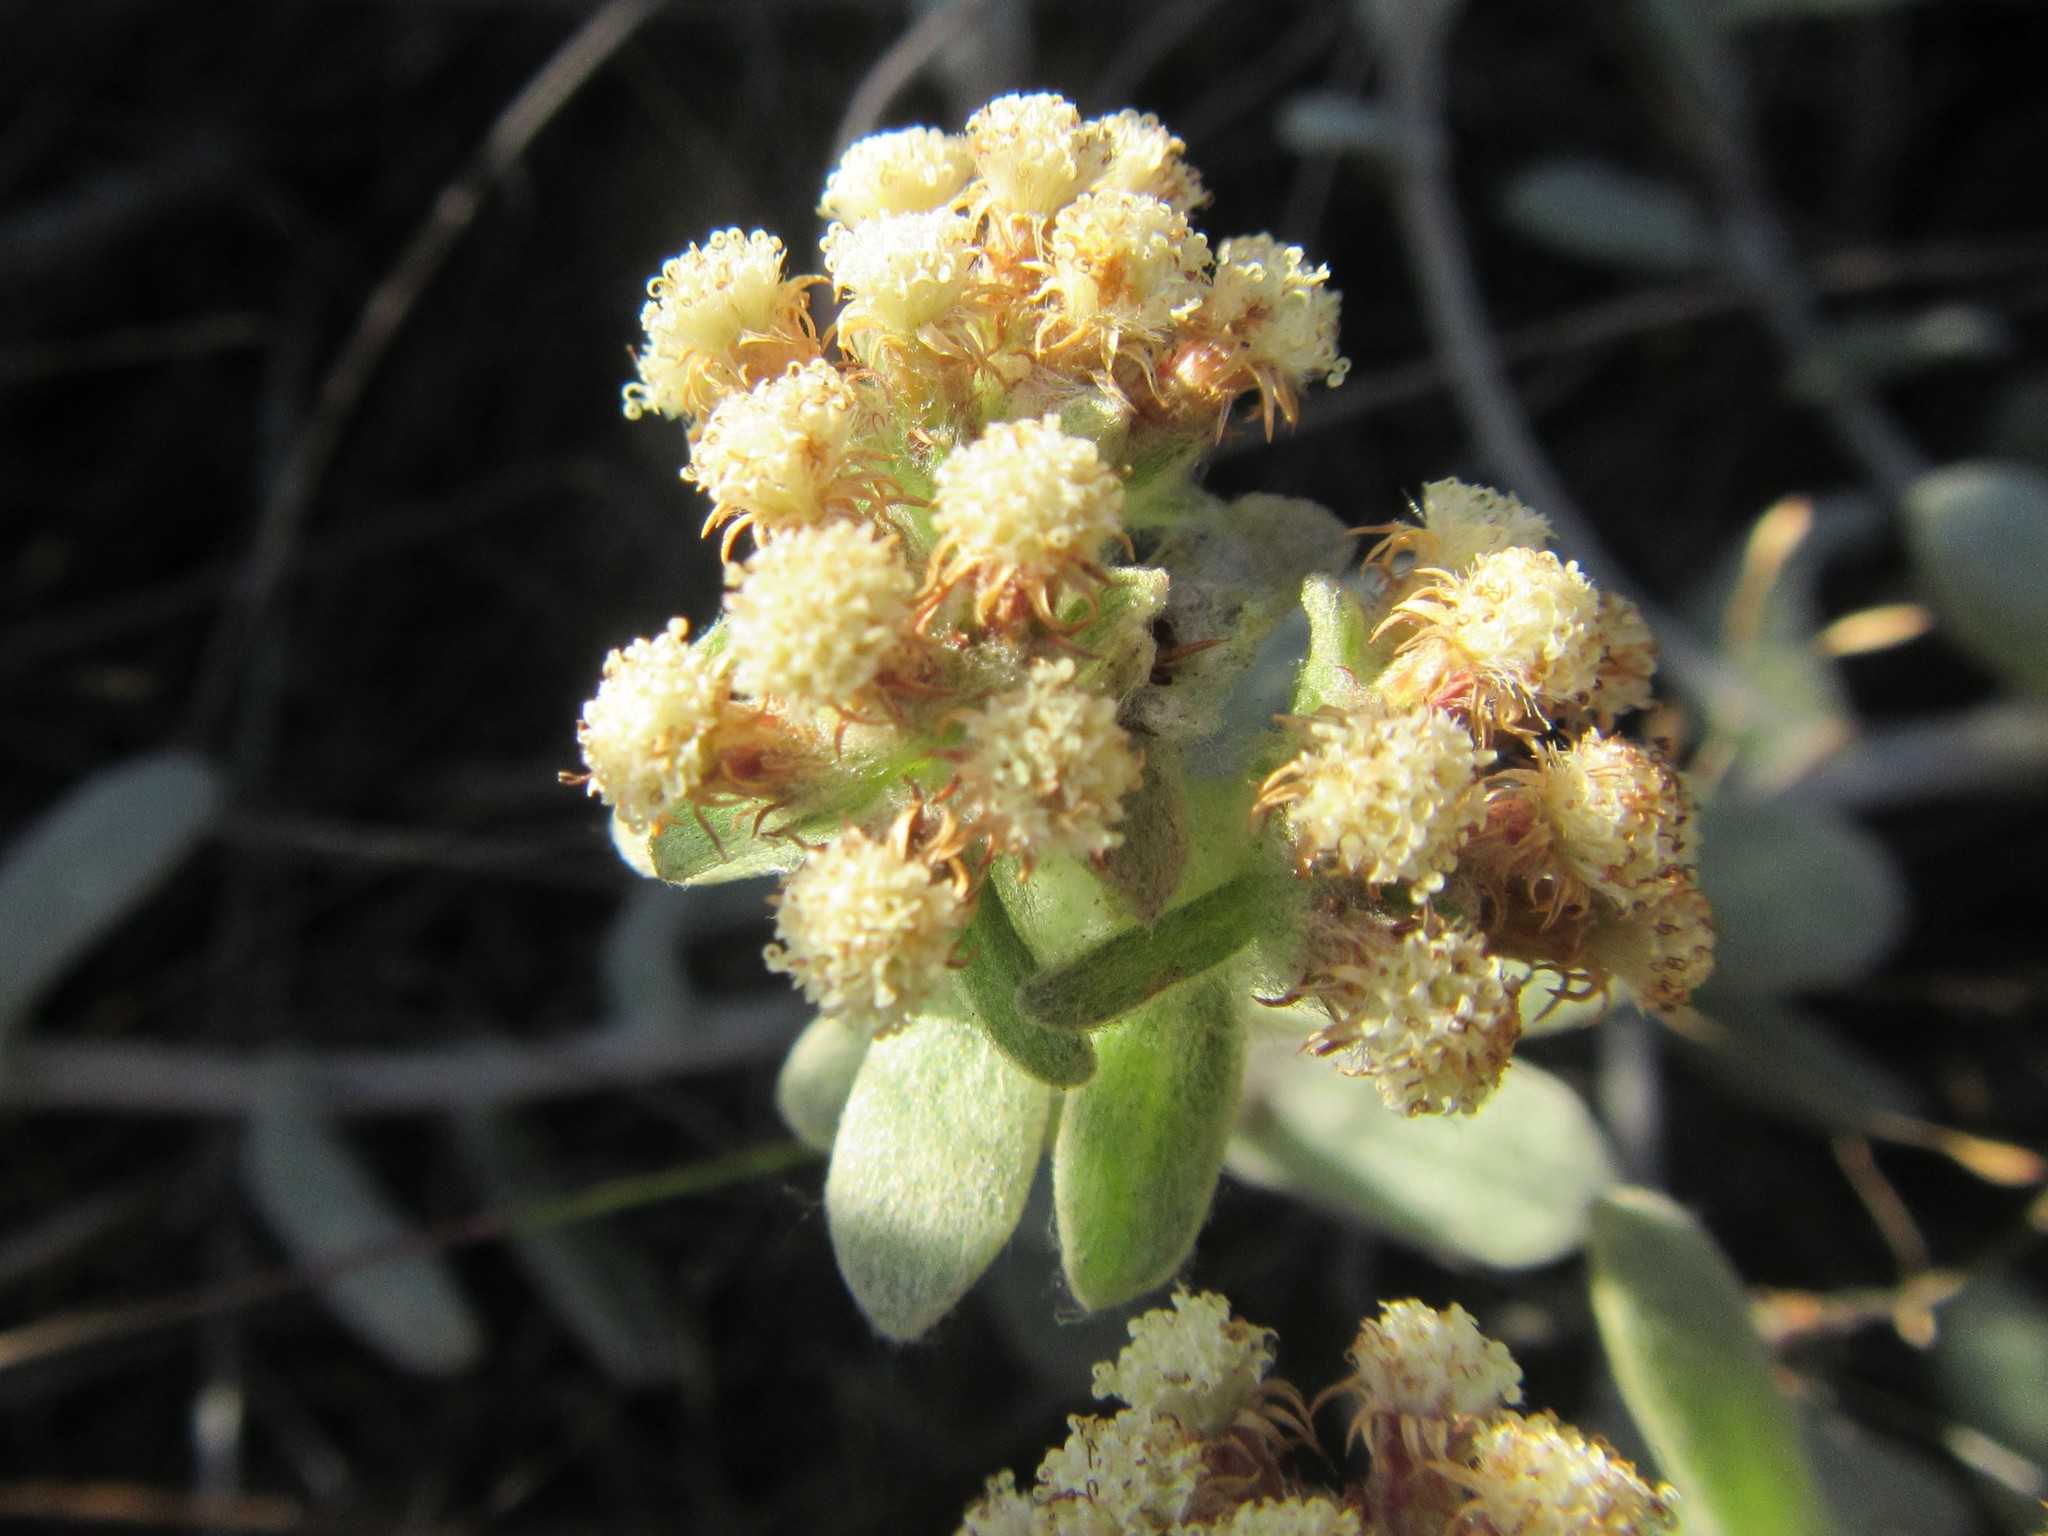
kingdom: Plantae
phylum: Tracheophyta
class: Magnoliopsida
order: Asterales
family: Asteraceae
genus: Helichrysum
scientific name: Helichrysum spiralepis
